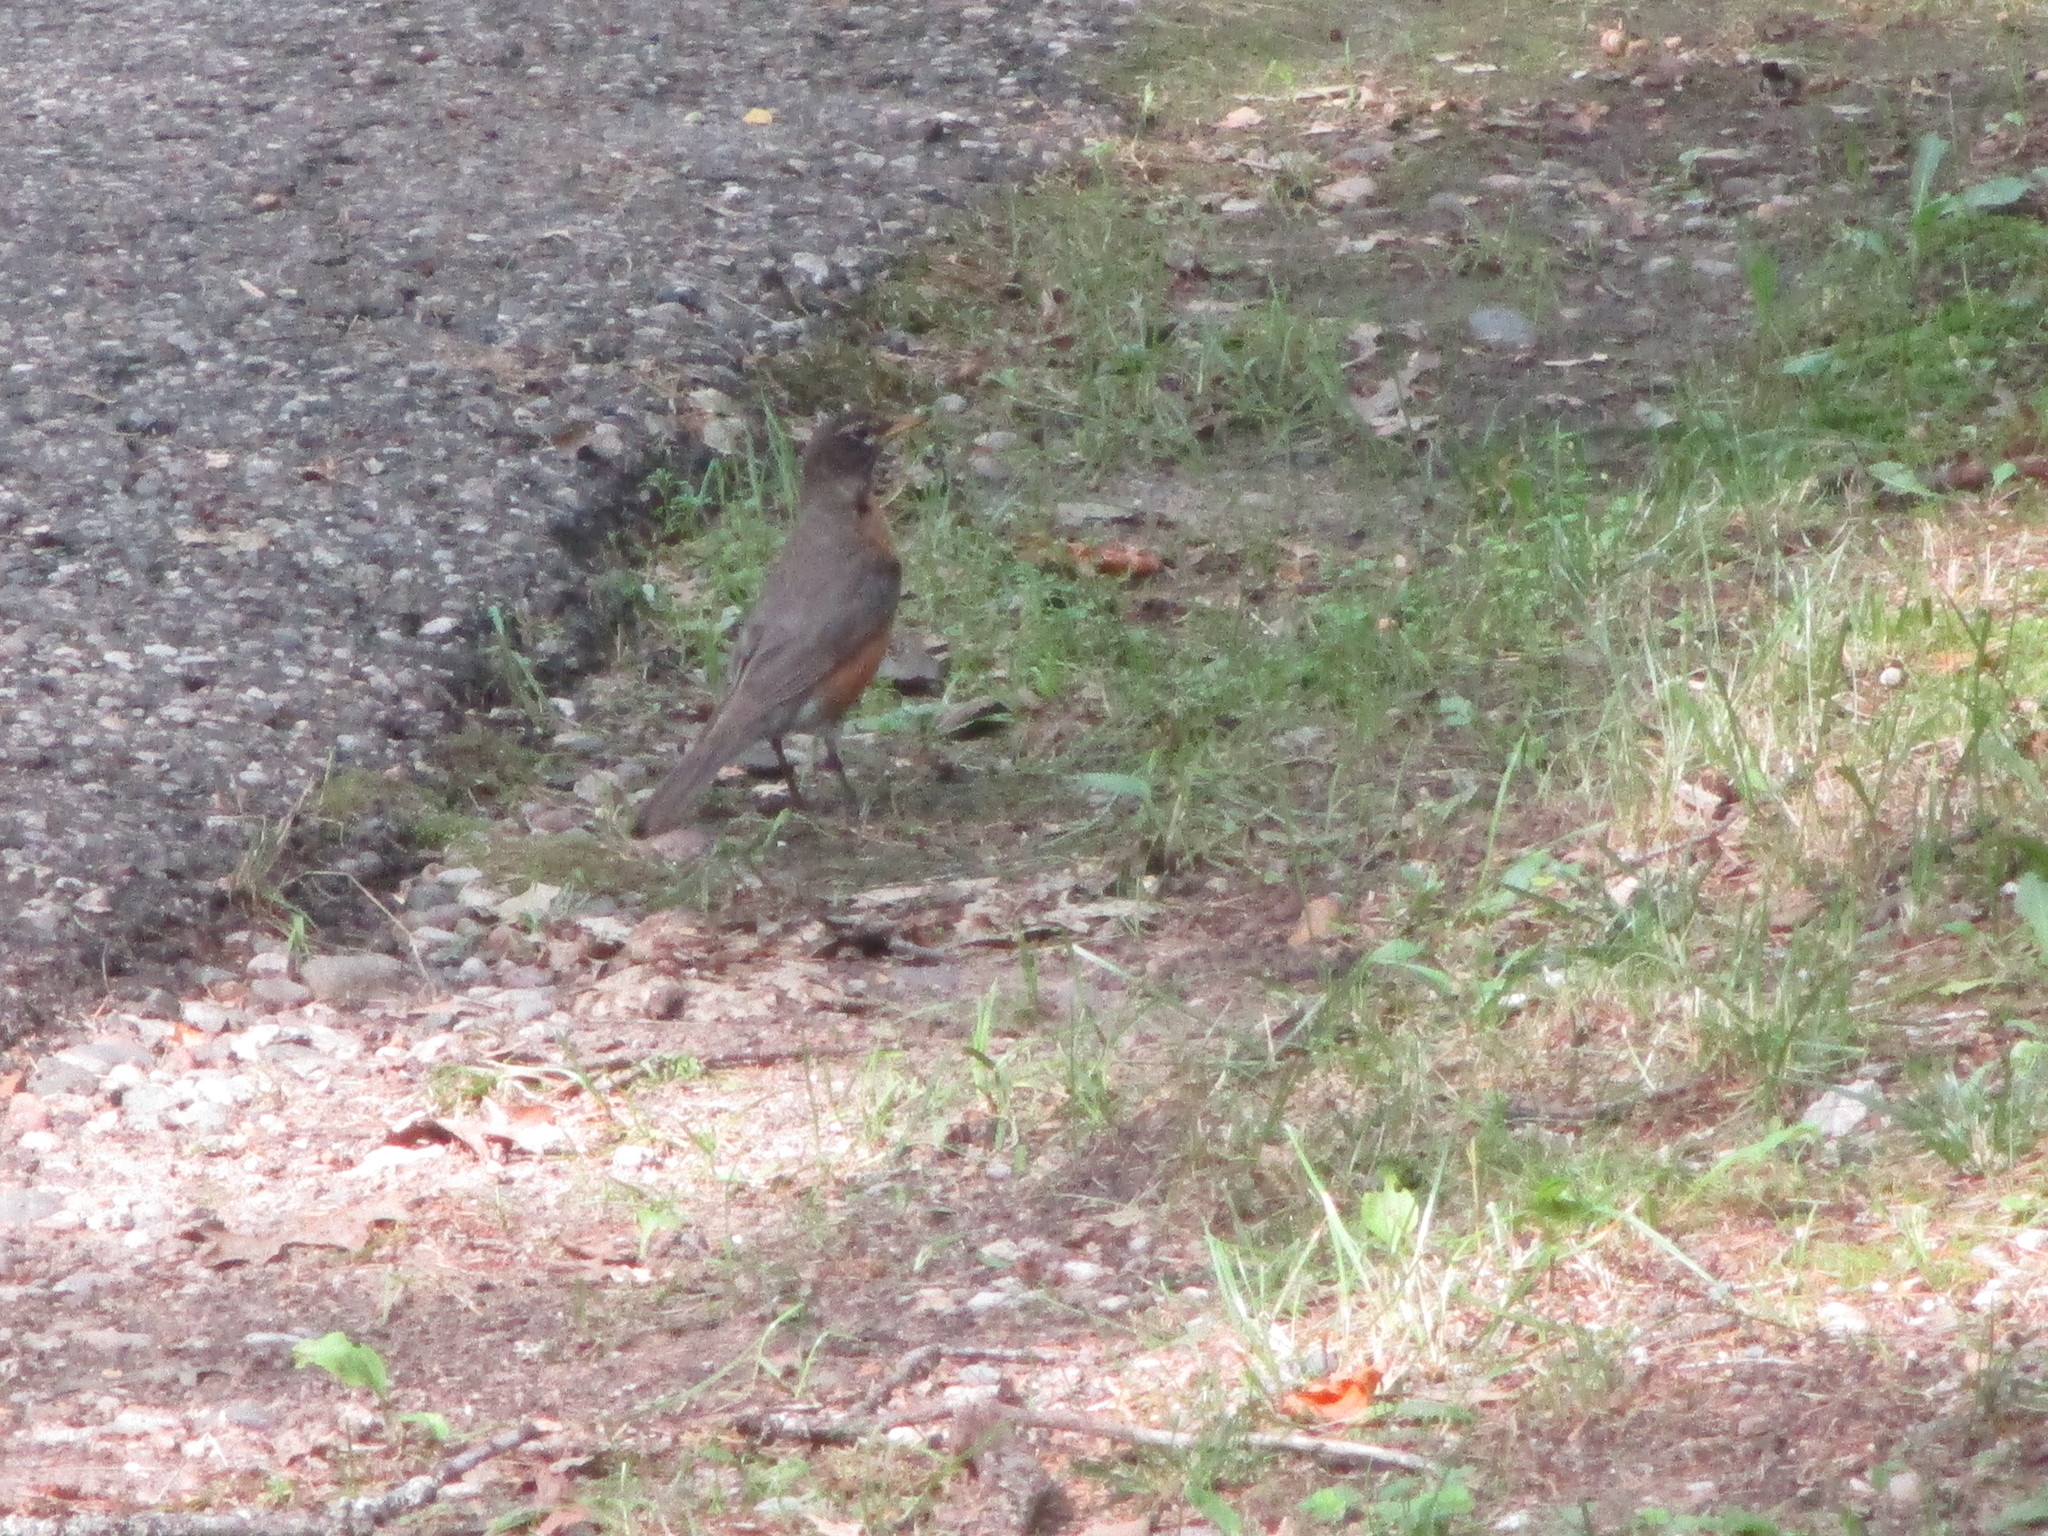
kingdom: Animalia
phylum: Chordata
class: Aves
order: Passeriformes
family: Turdidae
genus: Turdus
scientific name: Turdus migratorius
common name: American robin
